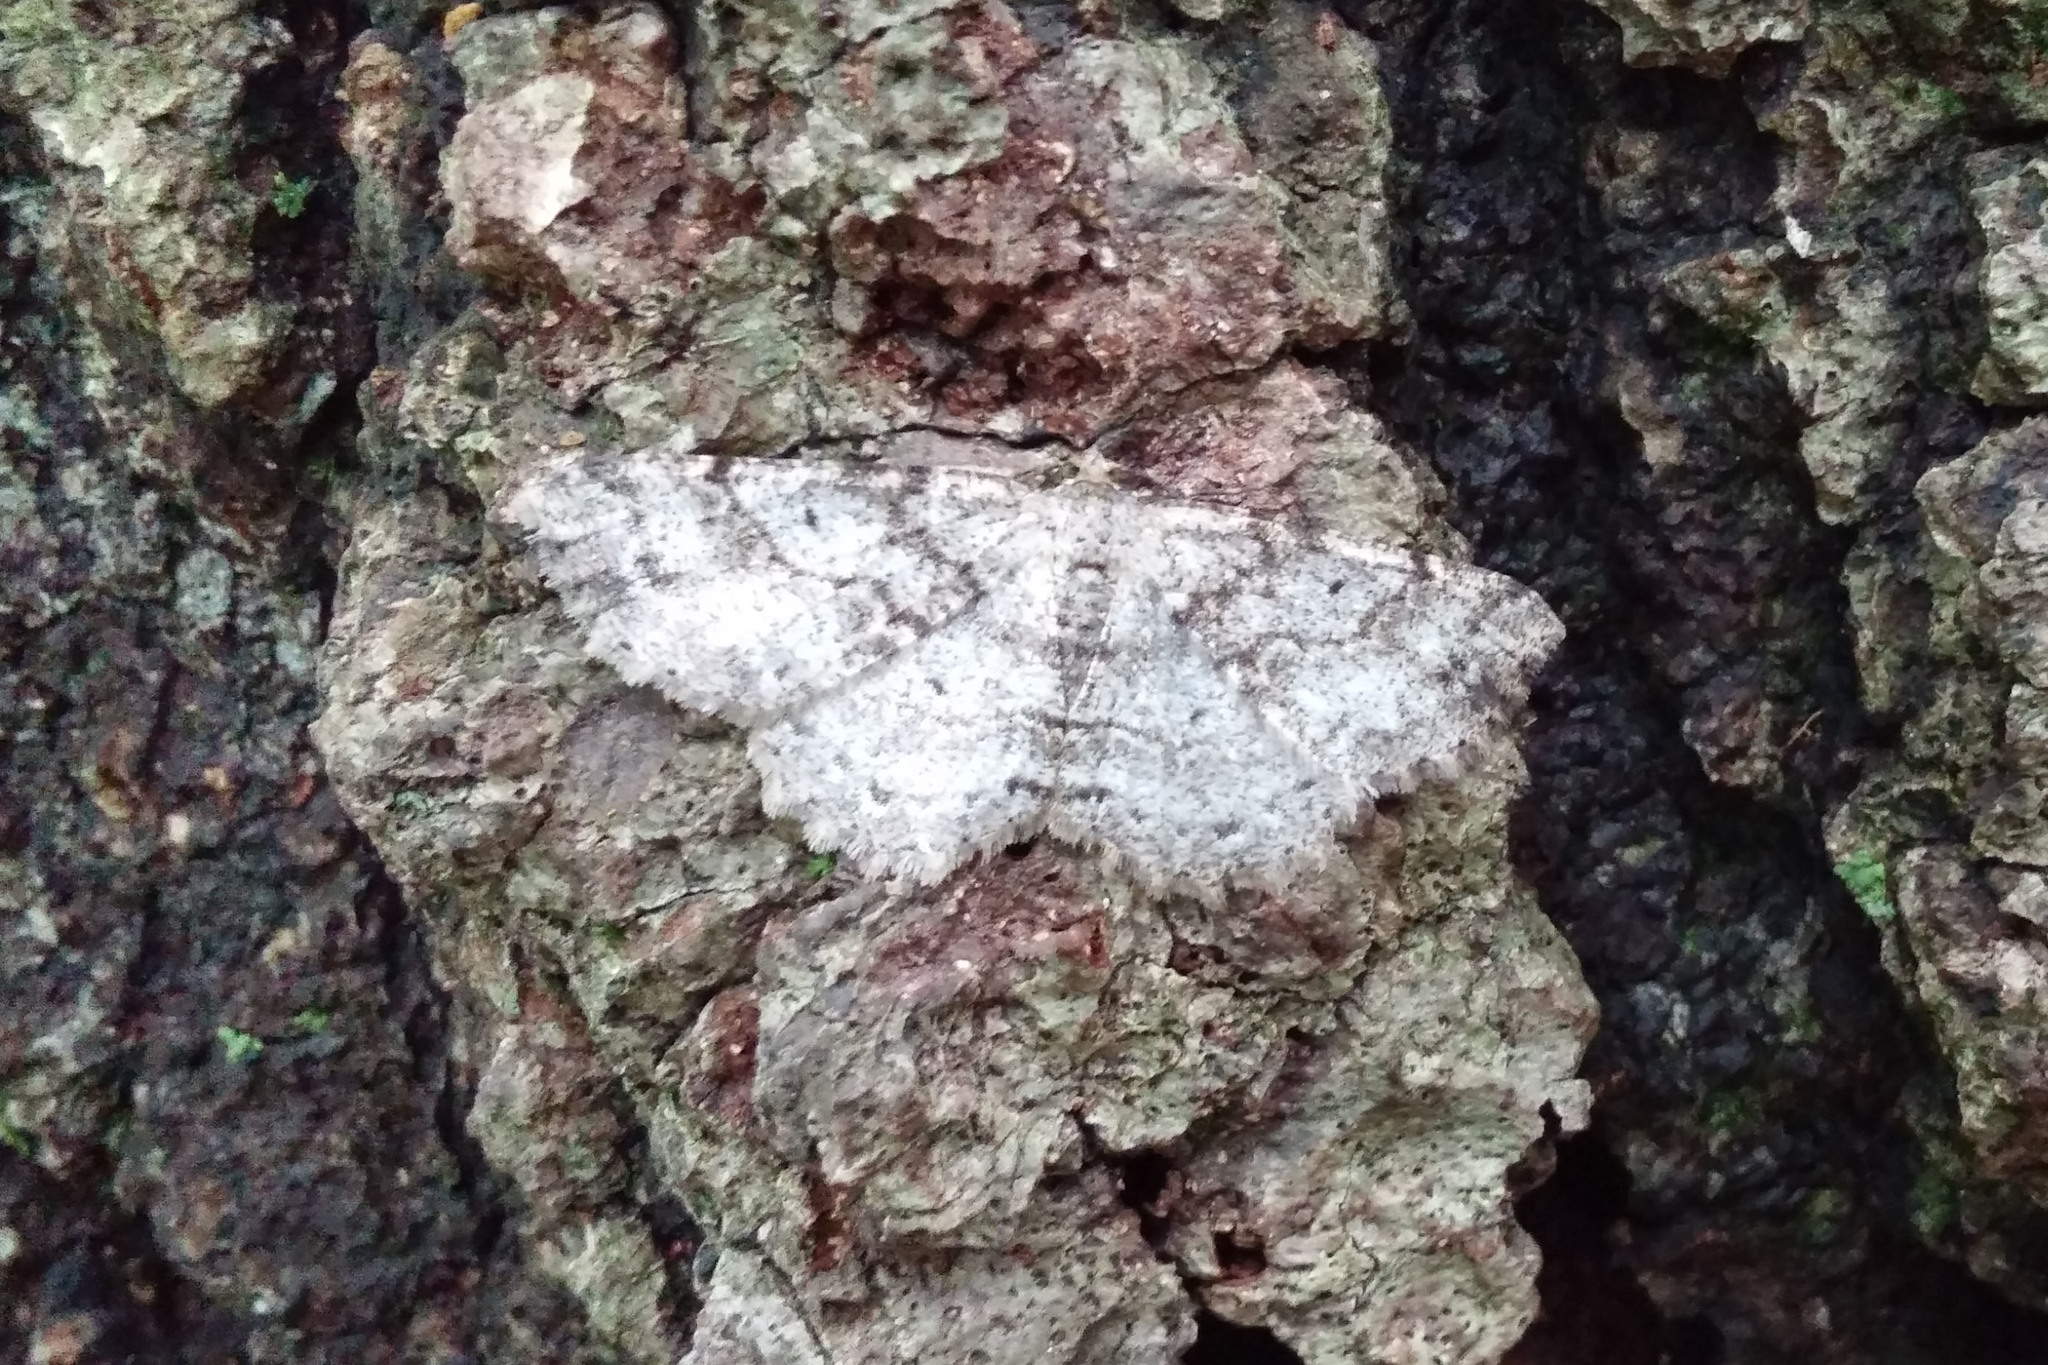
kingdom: Animalia
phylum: Arthropoda
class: Insecta
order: Lepidoptera
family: Geometridae
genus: Melanolophia
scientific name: Melanolophia canadaria
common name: Canadian melanolophia
